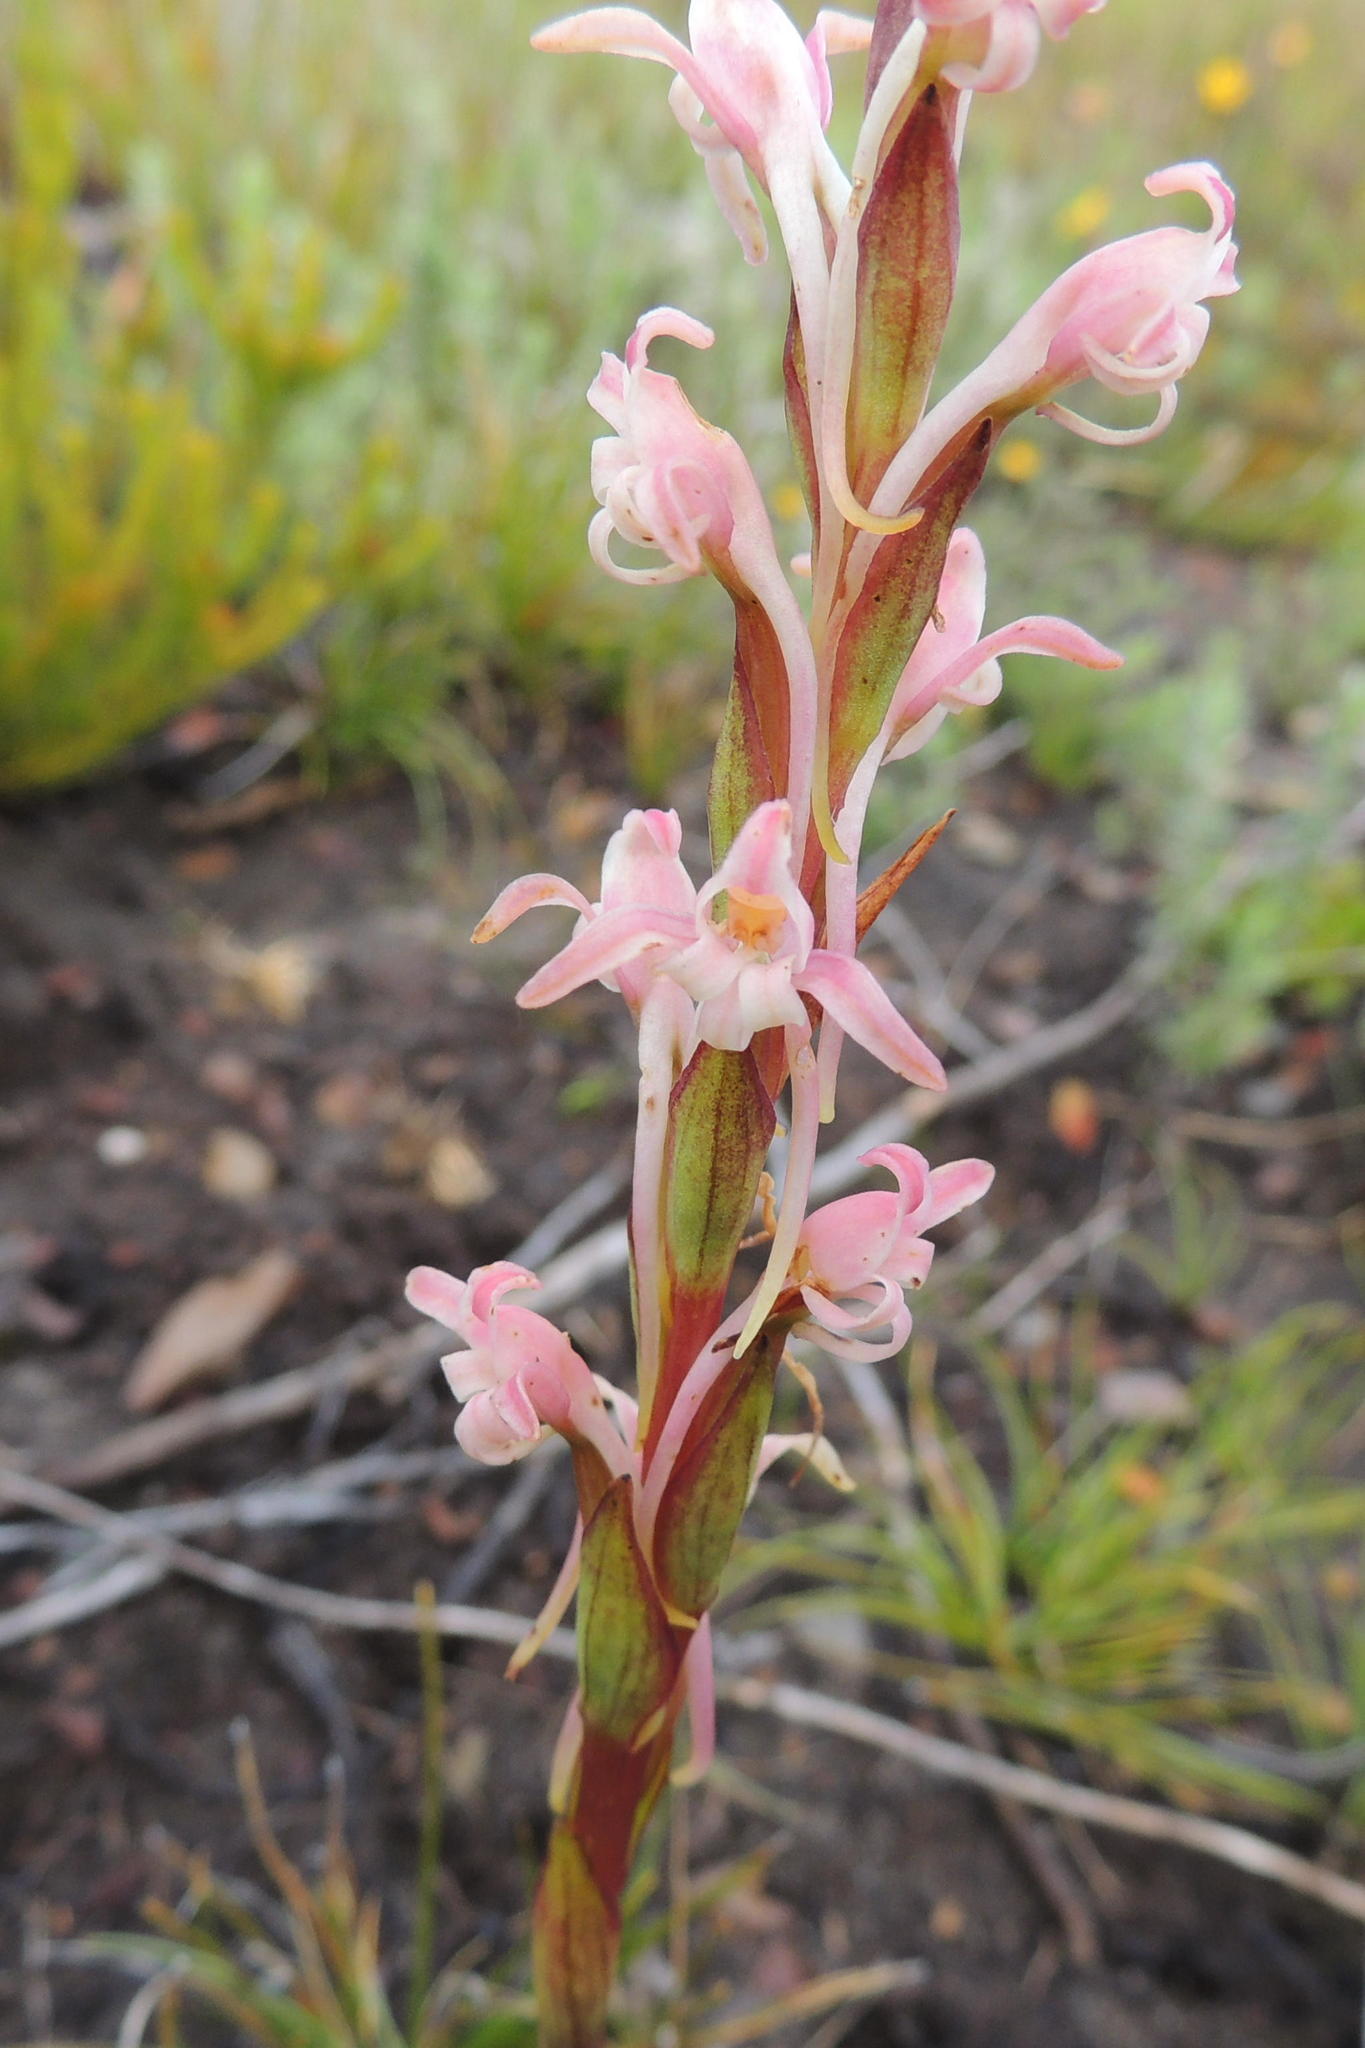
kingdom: Plantae
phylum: Tracheophyta
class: Liliopsida
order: Asparagales
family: Orchidaceae
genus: Satyrium
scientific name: Satyrium stenopetalum
